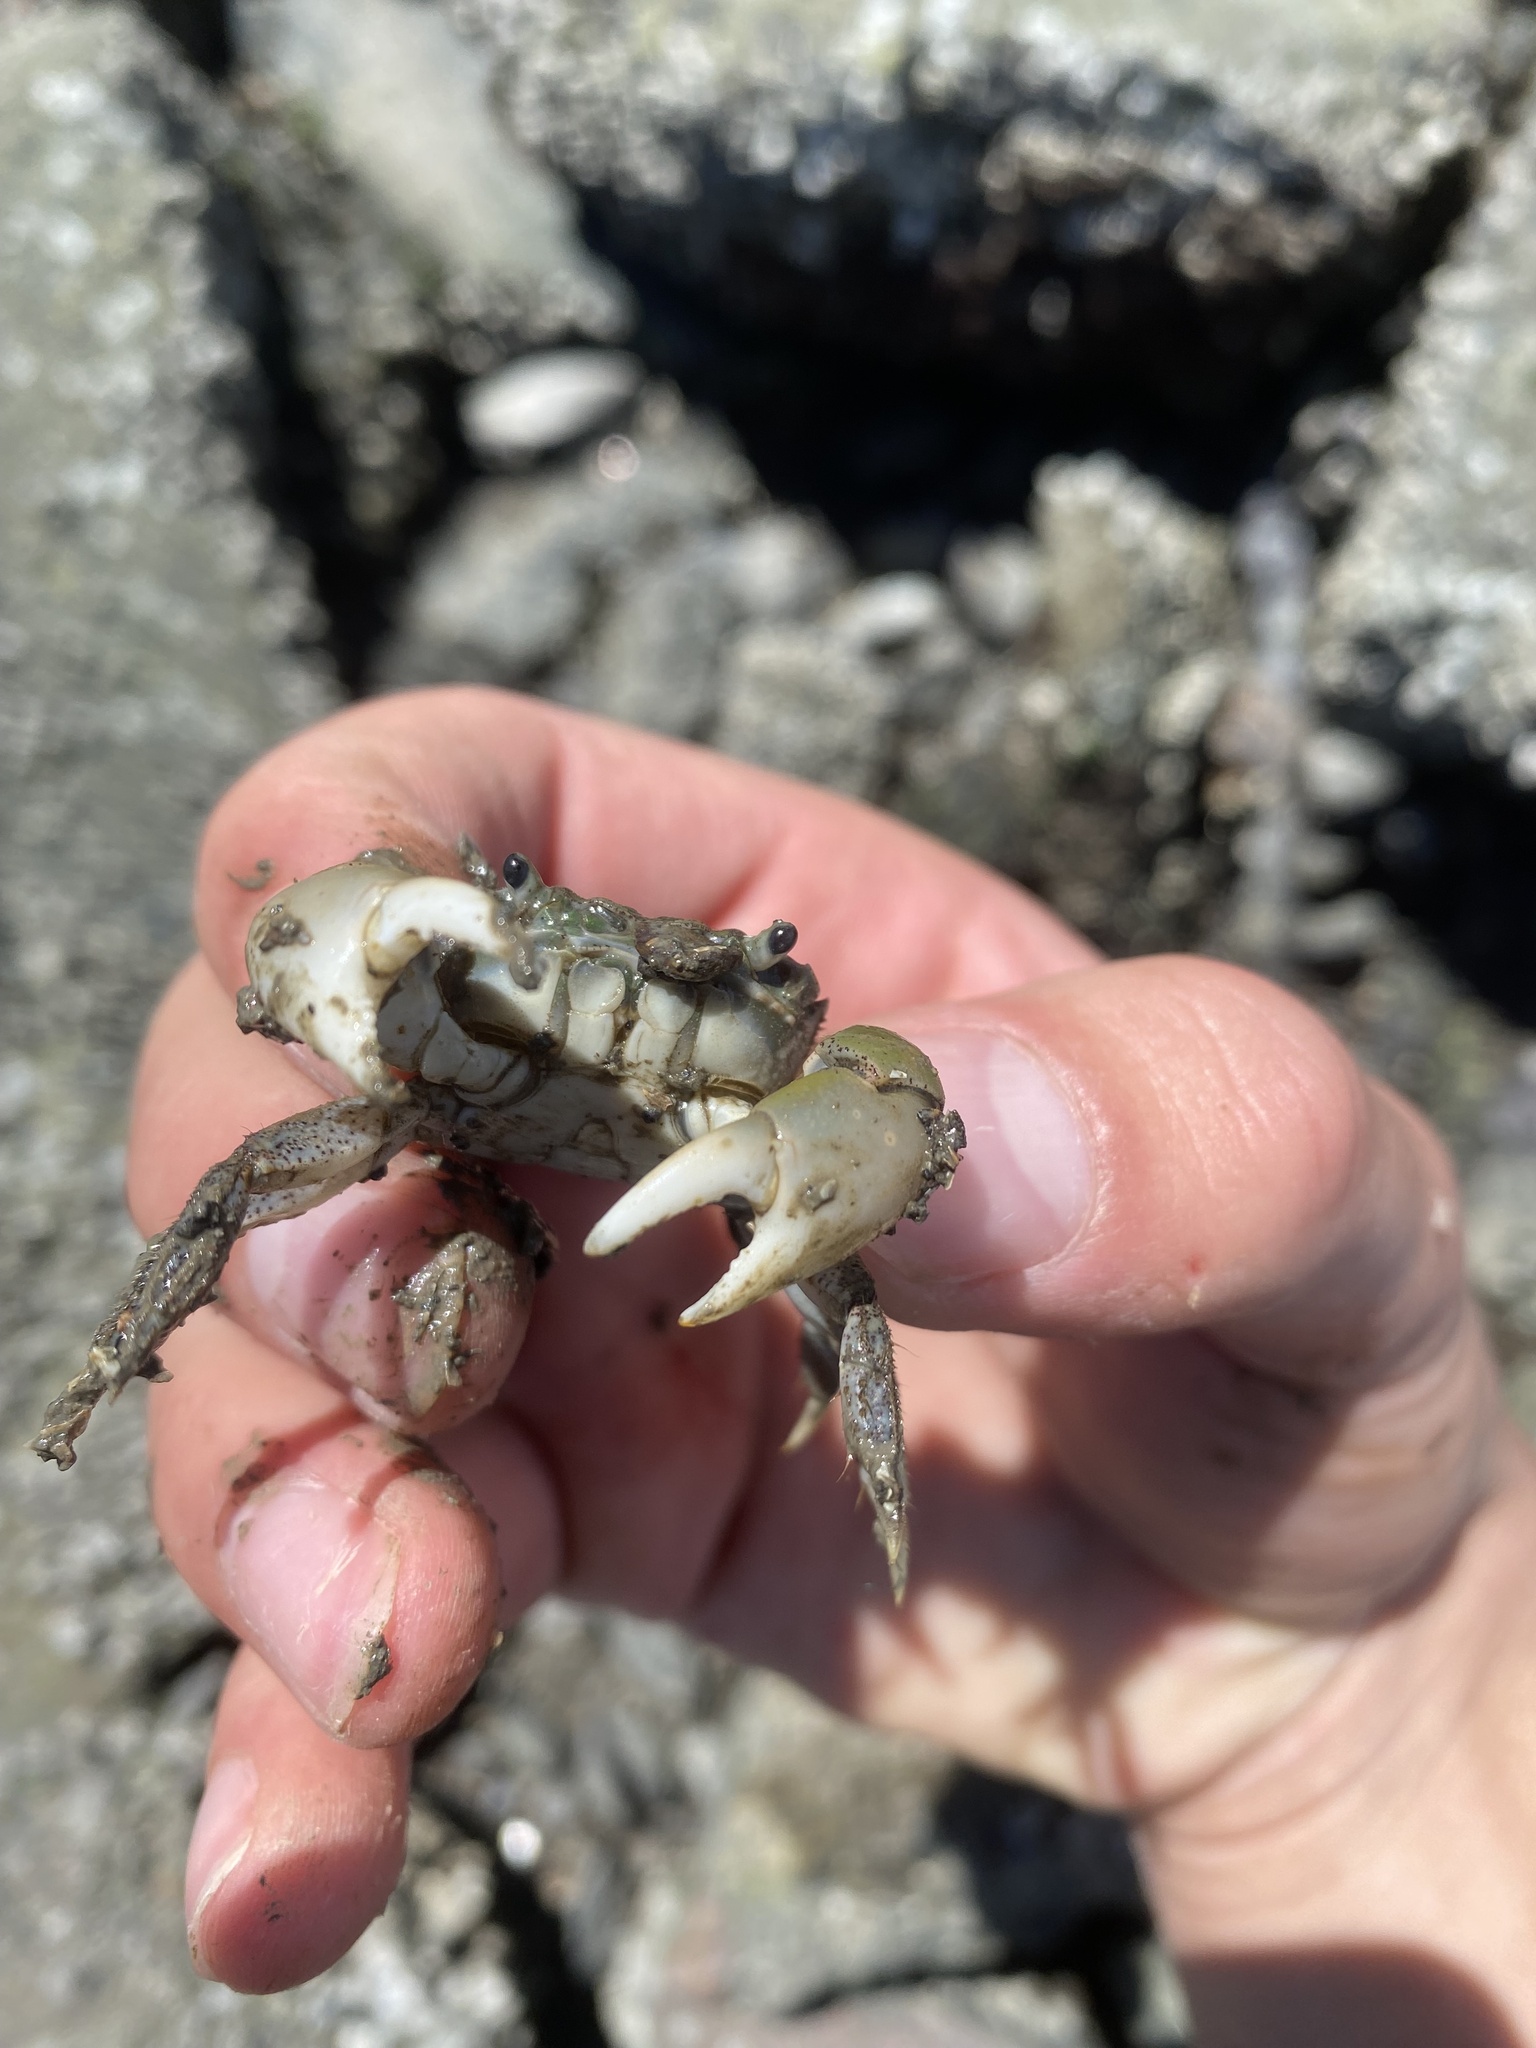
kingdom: Animalia
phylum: Arthropoda
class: Malacostraca
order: Decapoda
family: Varunidae
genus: Hemigrapsus
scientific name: Hemigrapsus oregonensis
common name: Yellow shore crab
